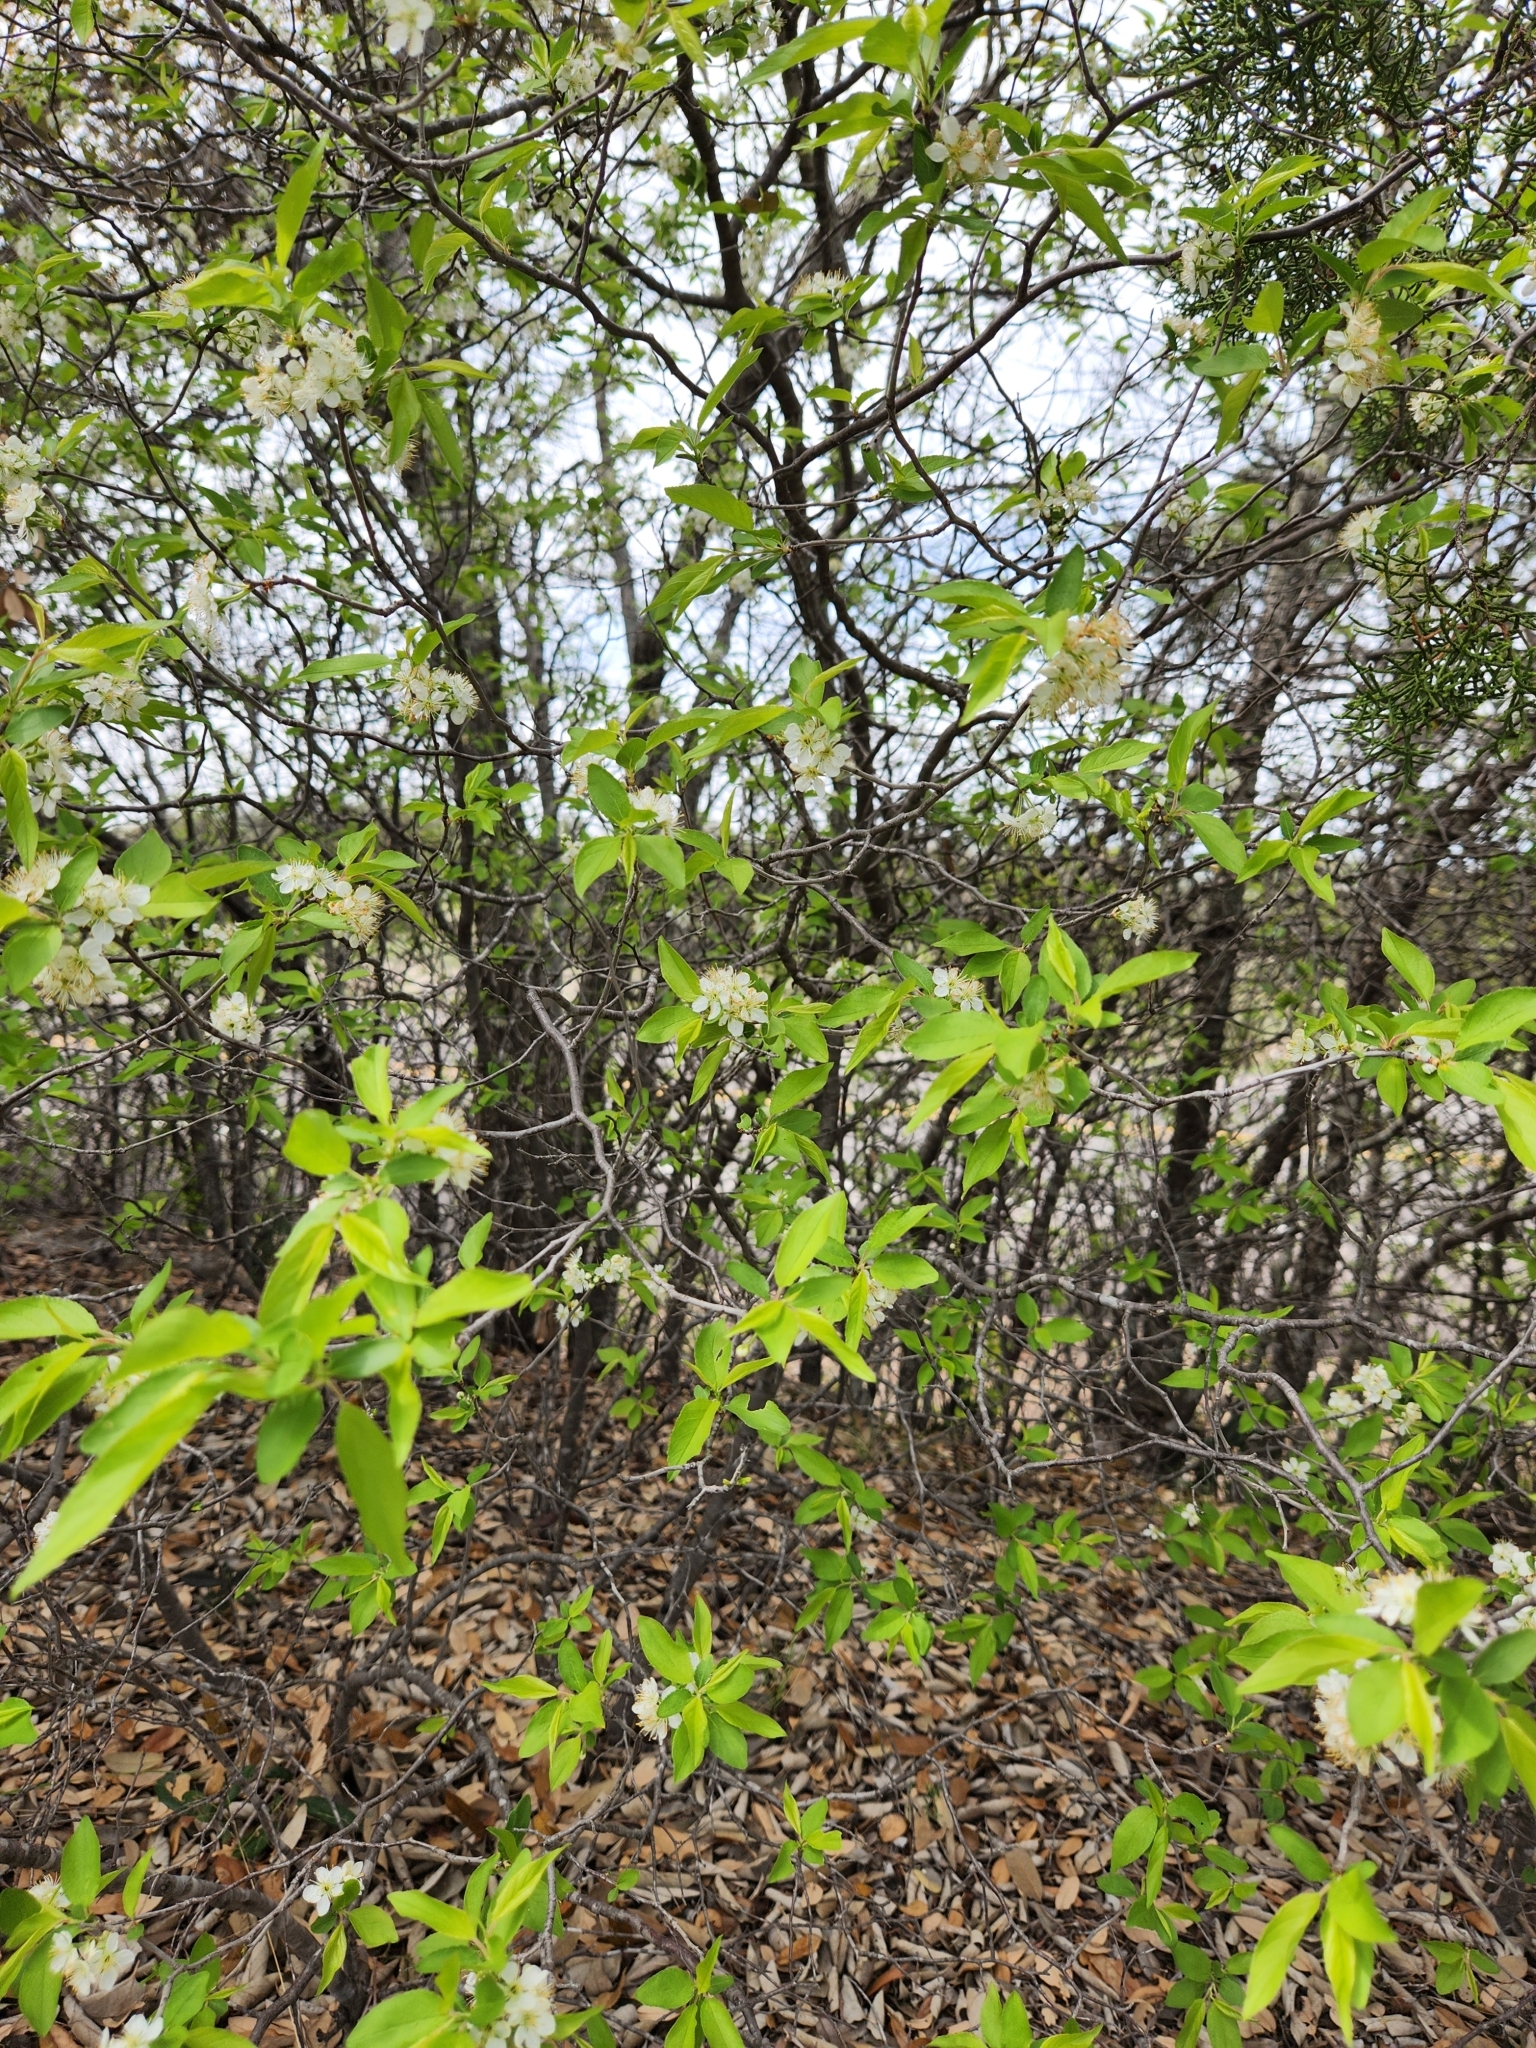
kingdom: Plantae
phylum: Tracheophyta
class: Magnoliopsida
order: Rosales
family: Rosaceae
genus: Prunus
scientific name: Prunus murrayana
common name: Murray plum
